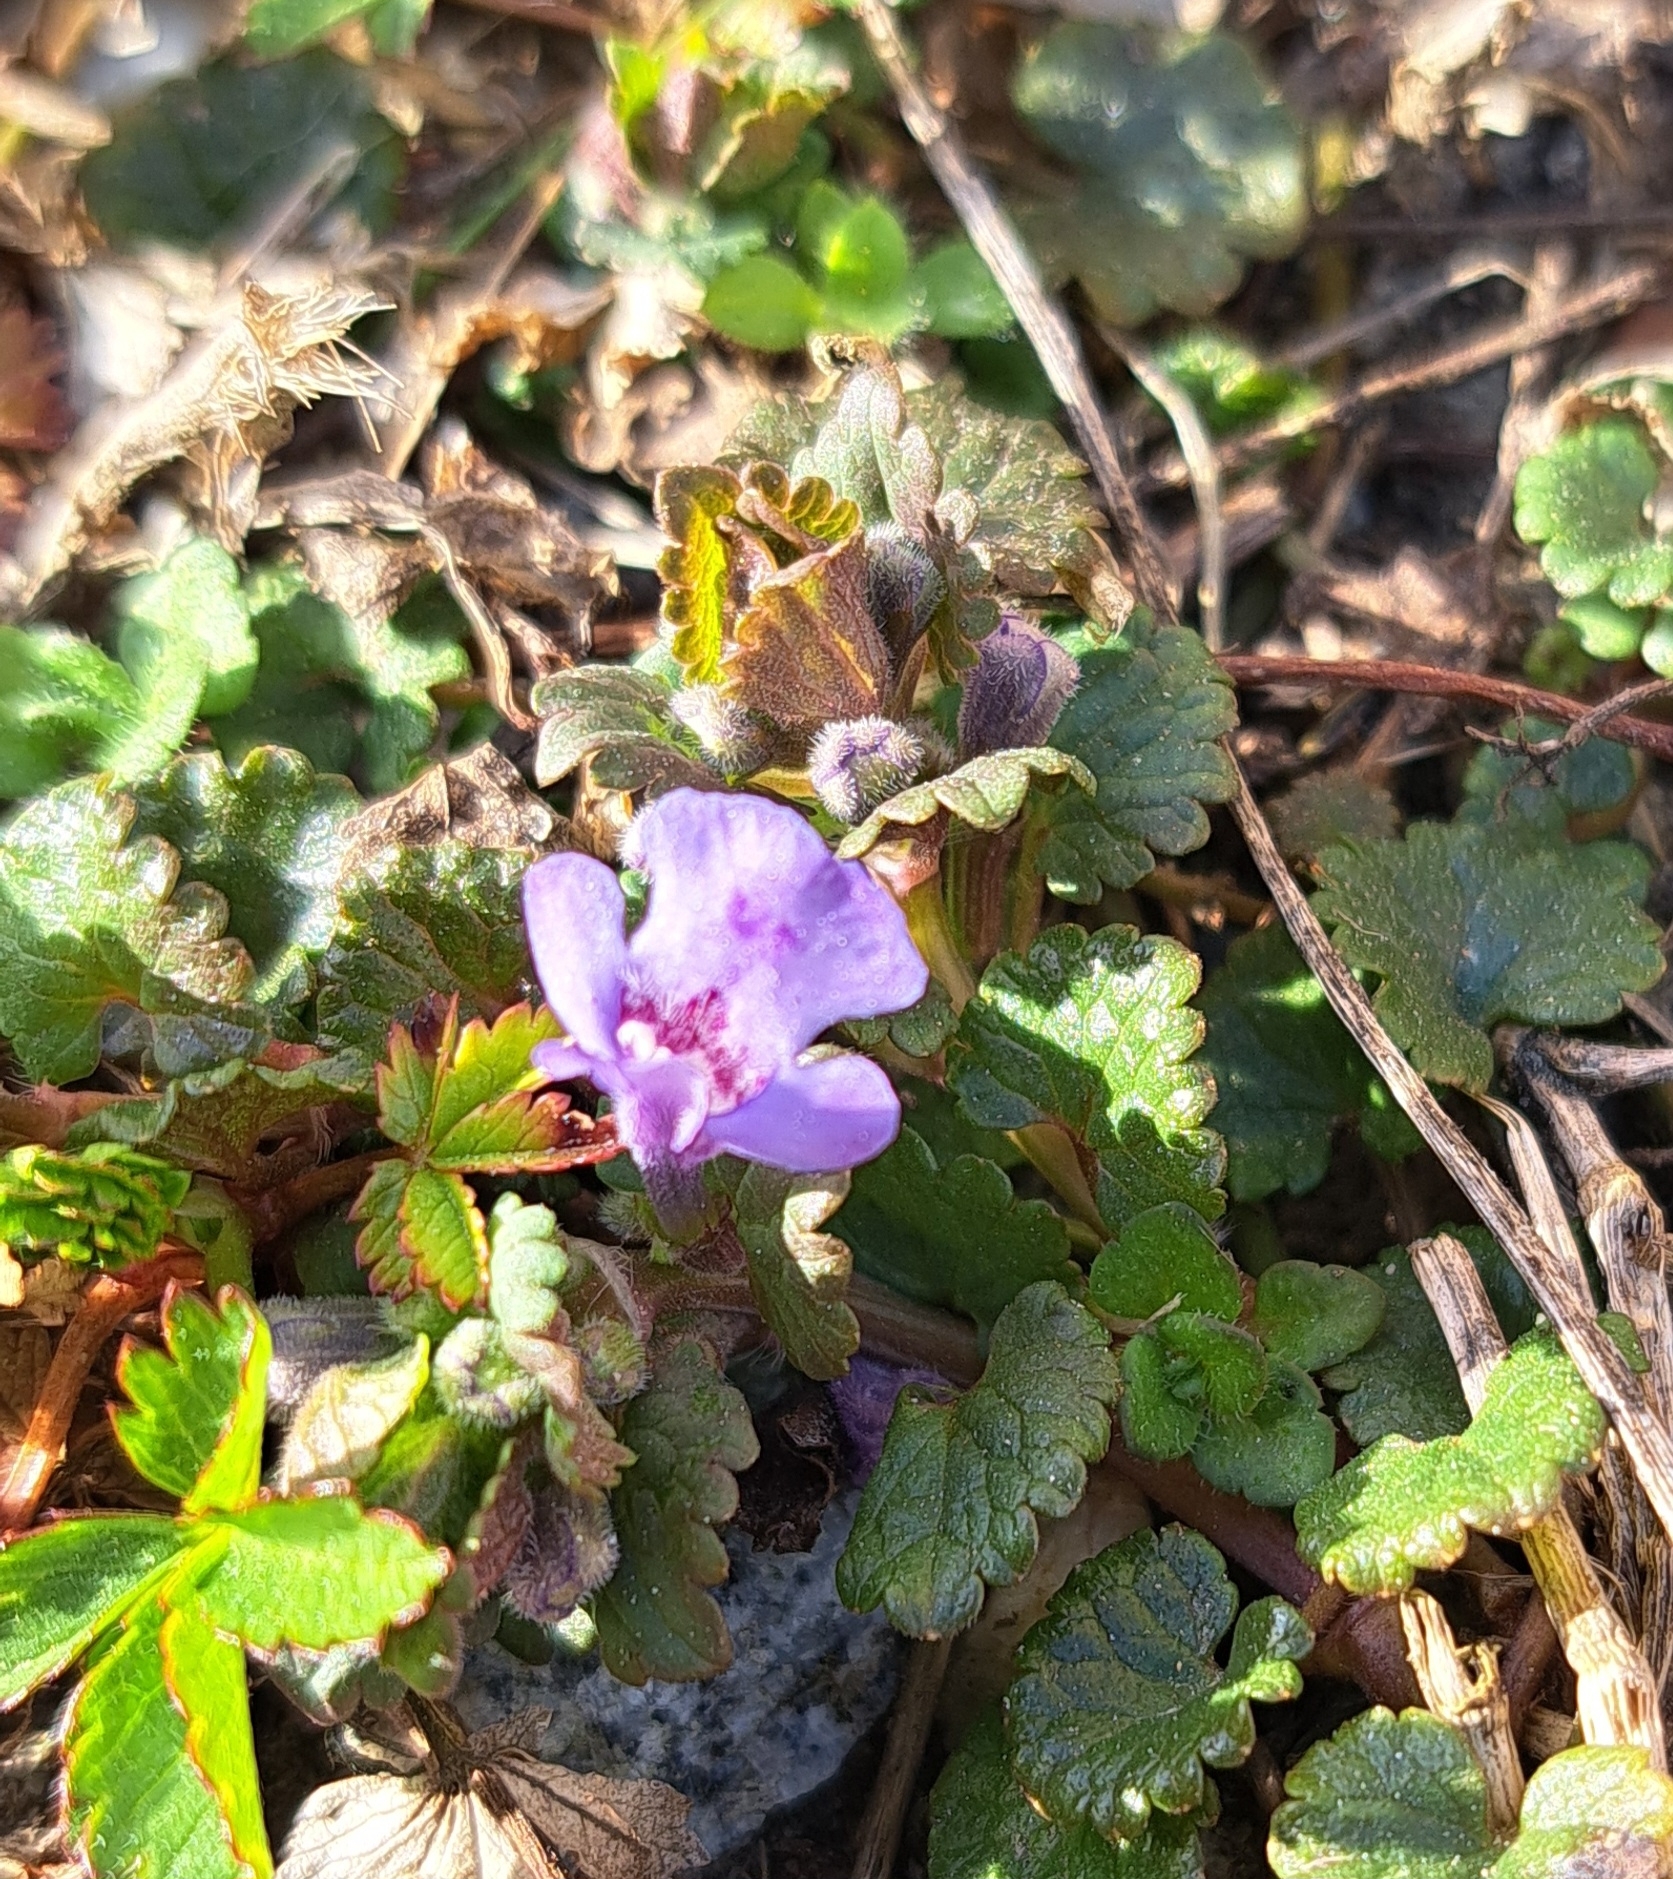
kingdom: Plantae
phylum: Tracheophyta
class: Magnoliopsida
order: Lamiales
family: Lamiaceae
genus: Glechoma
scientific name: Glechoma hederacea
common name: Ground ivy
